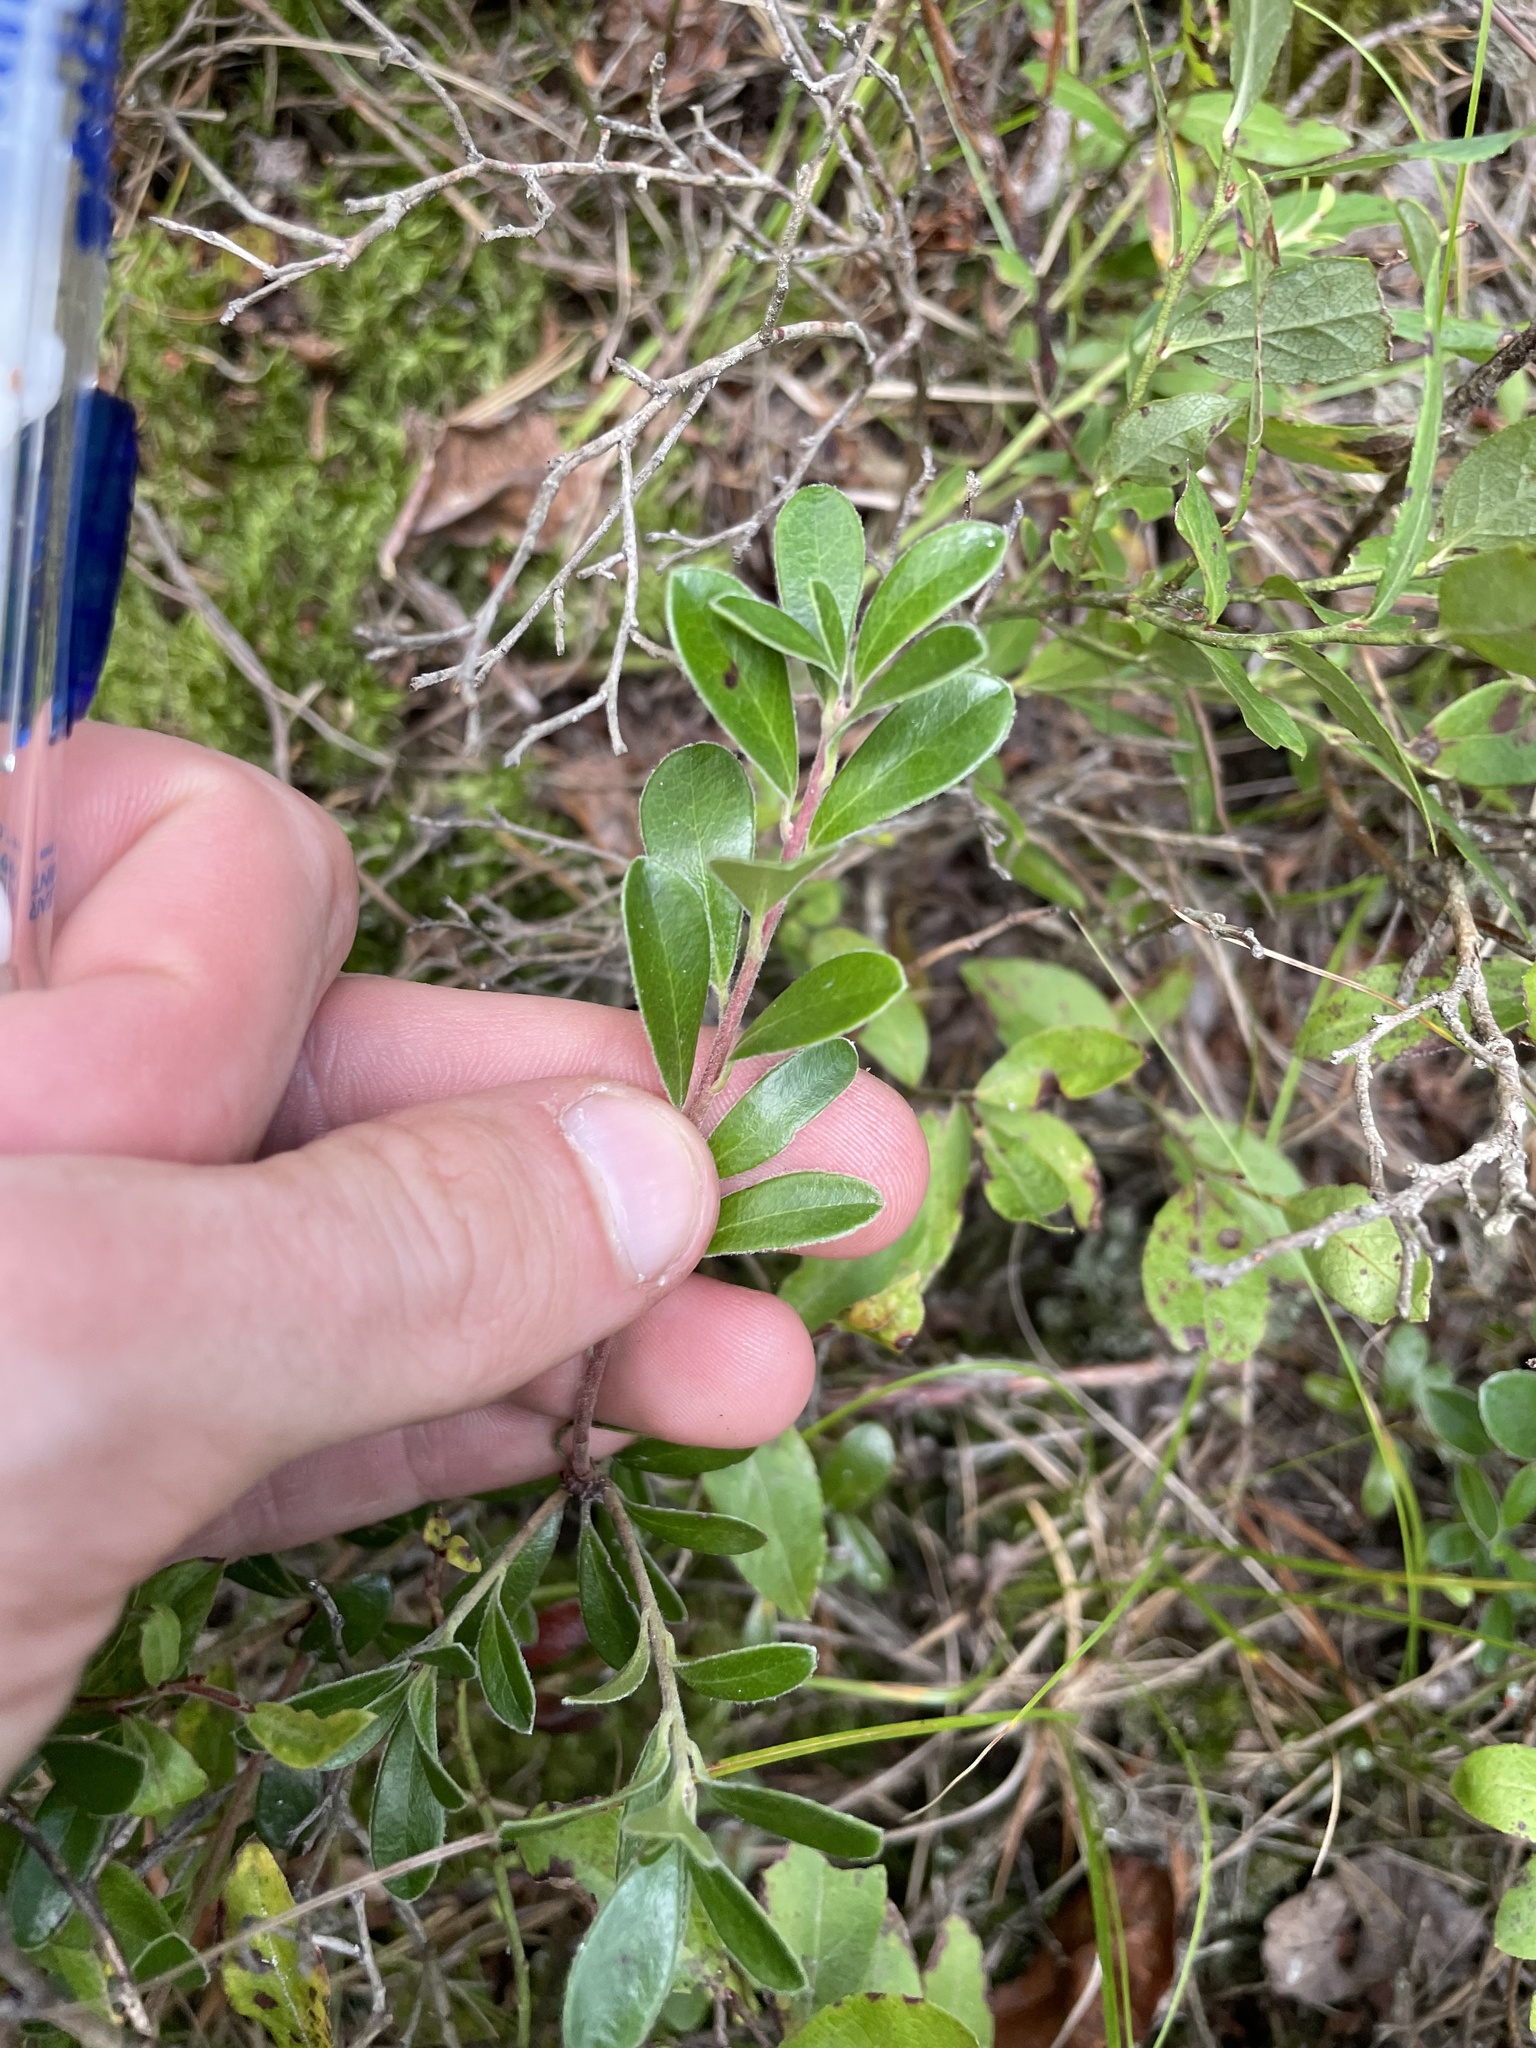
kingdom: Plantae
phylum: Tracheophyta
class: Magnoliopsida
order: Ericales
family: Ericaceae
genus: Arctostaphylos
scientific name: Arctostaphylos uva-ursi
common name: Bearberry
